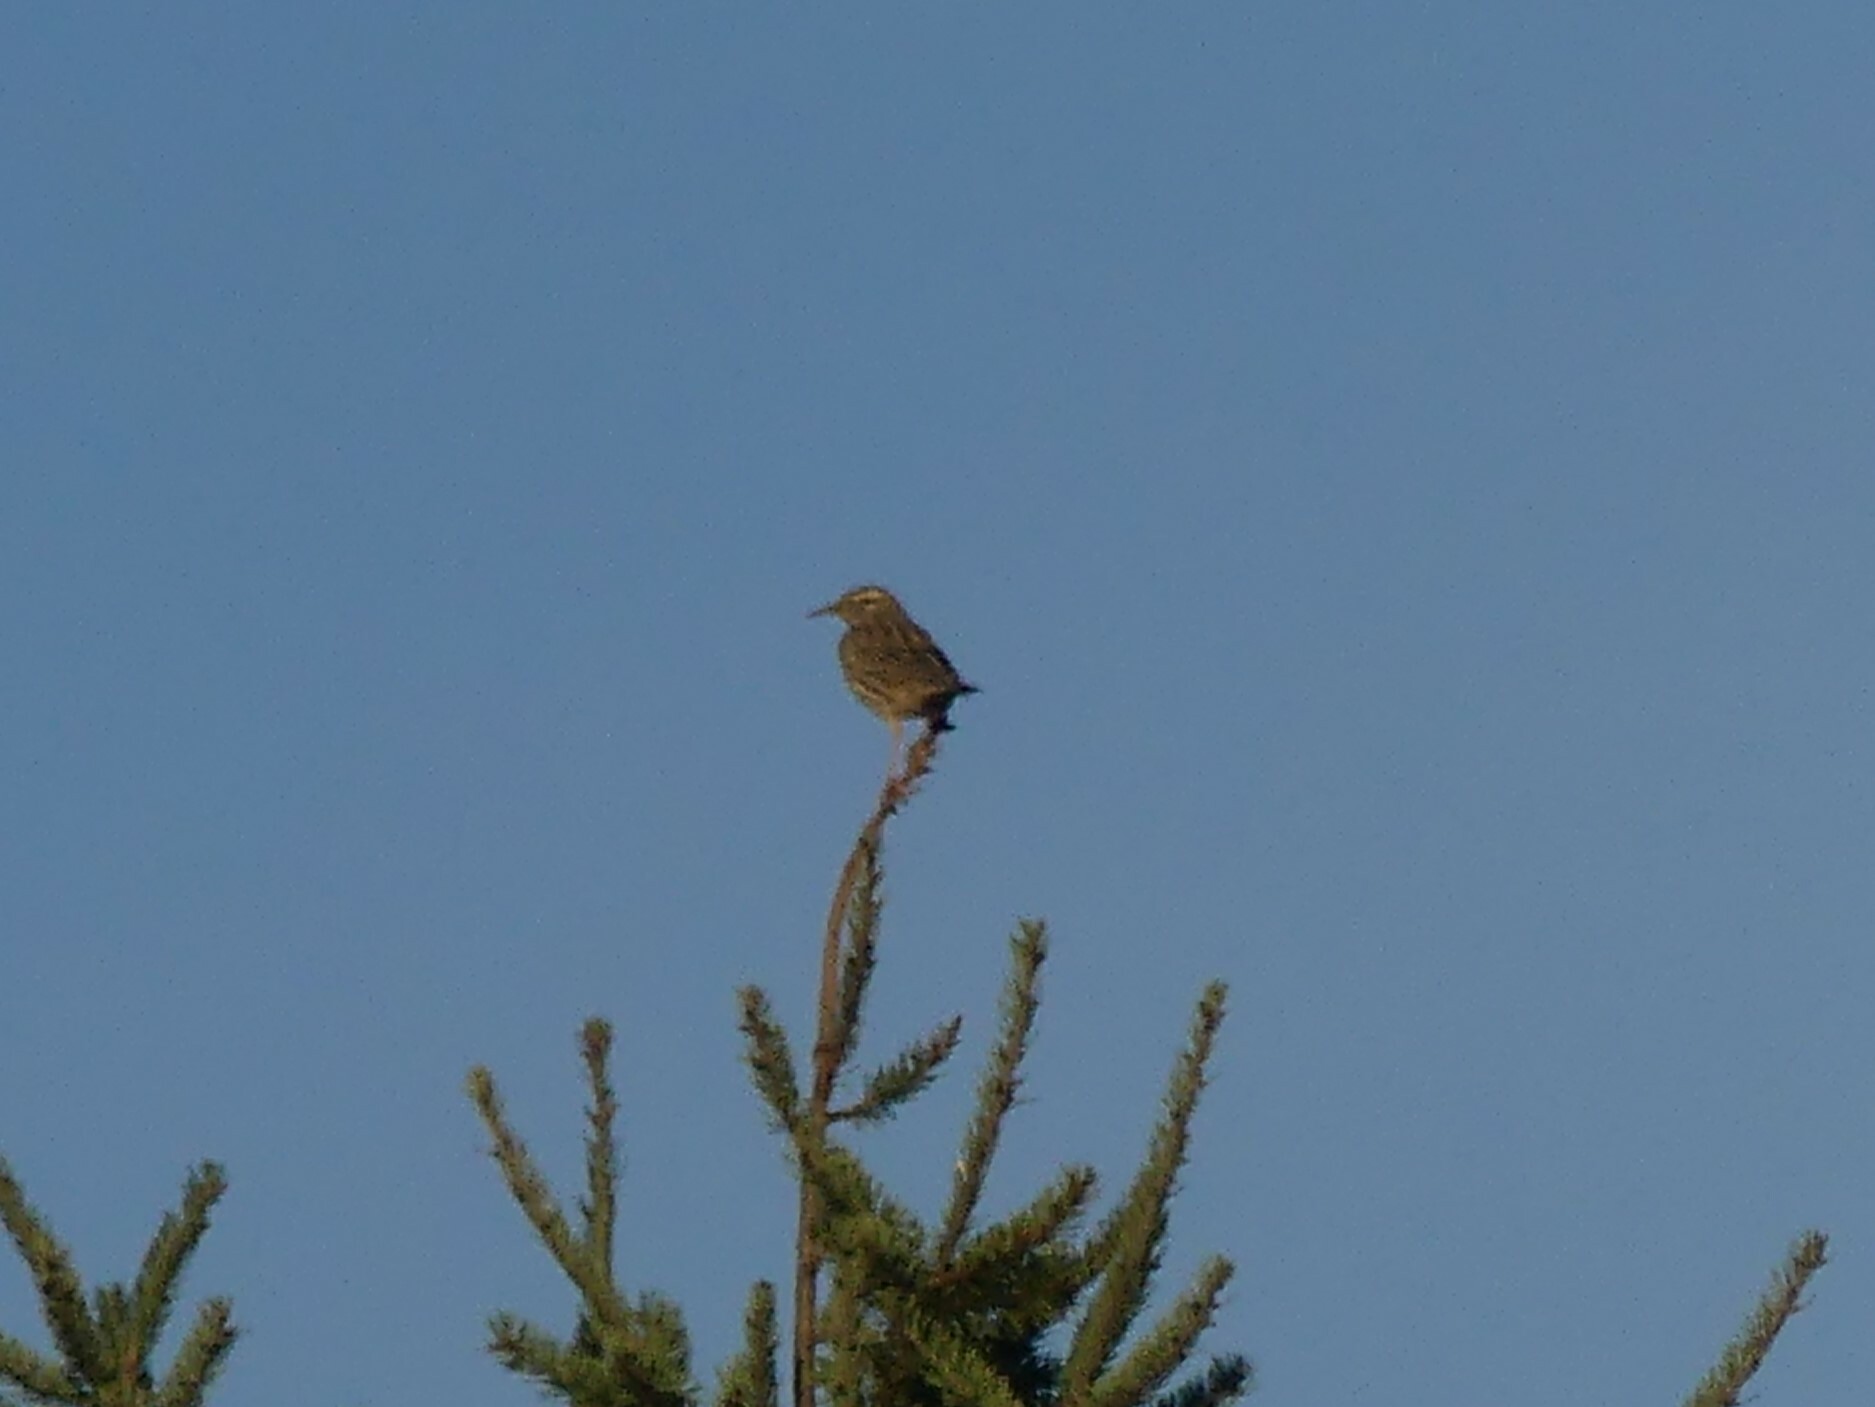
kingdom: Animalia
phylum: Chordata
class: Aves
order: Passeriformes
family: Icteridae
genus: Sturnella
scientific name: Sturnella neglecta
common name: Western meadowlark
